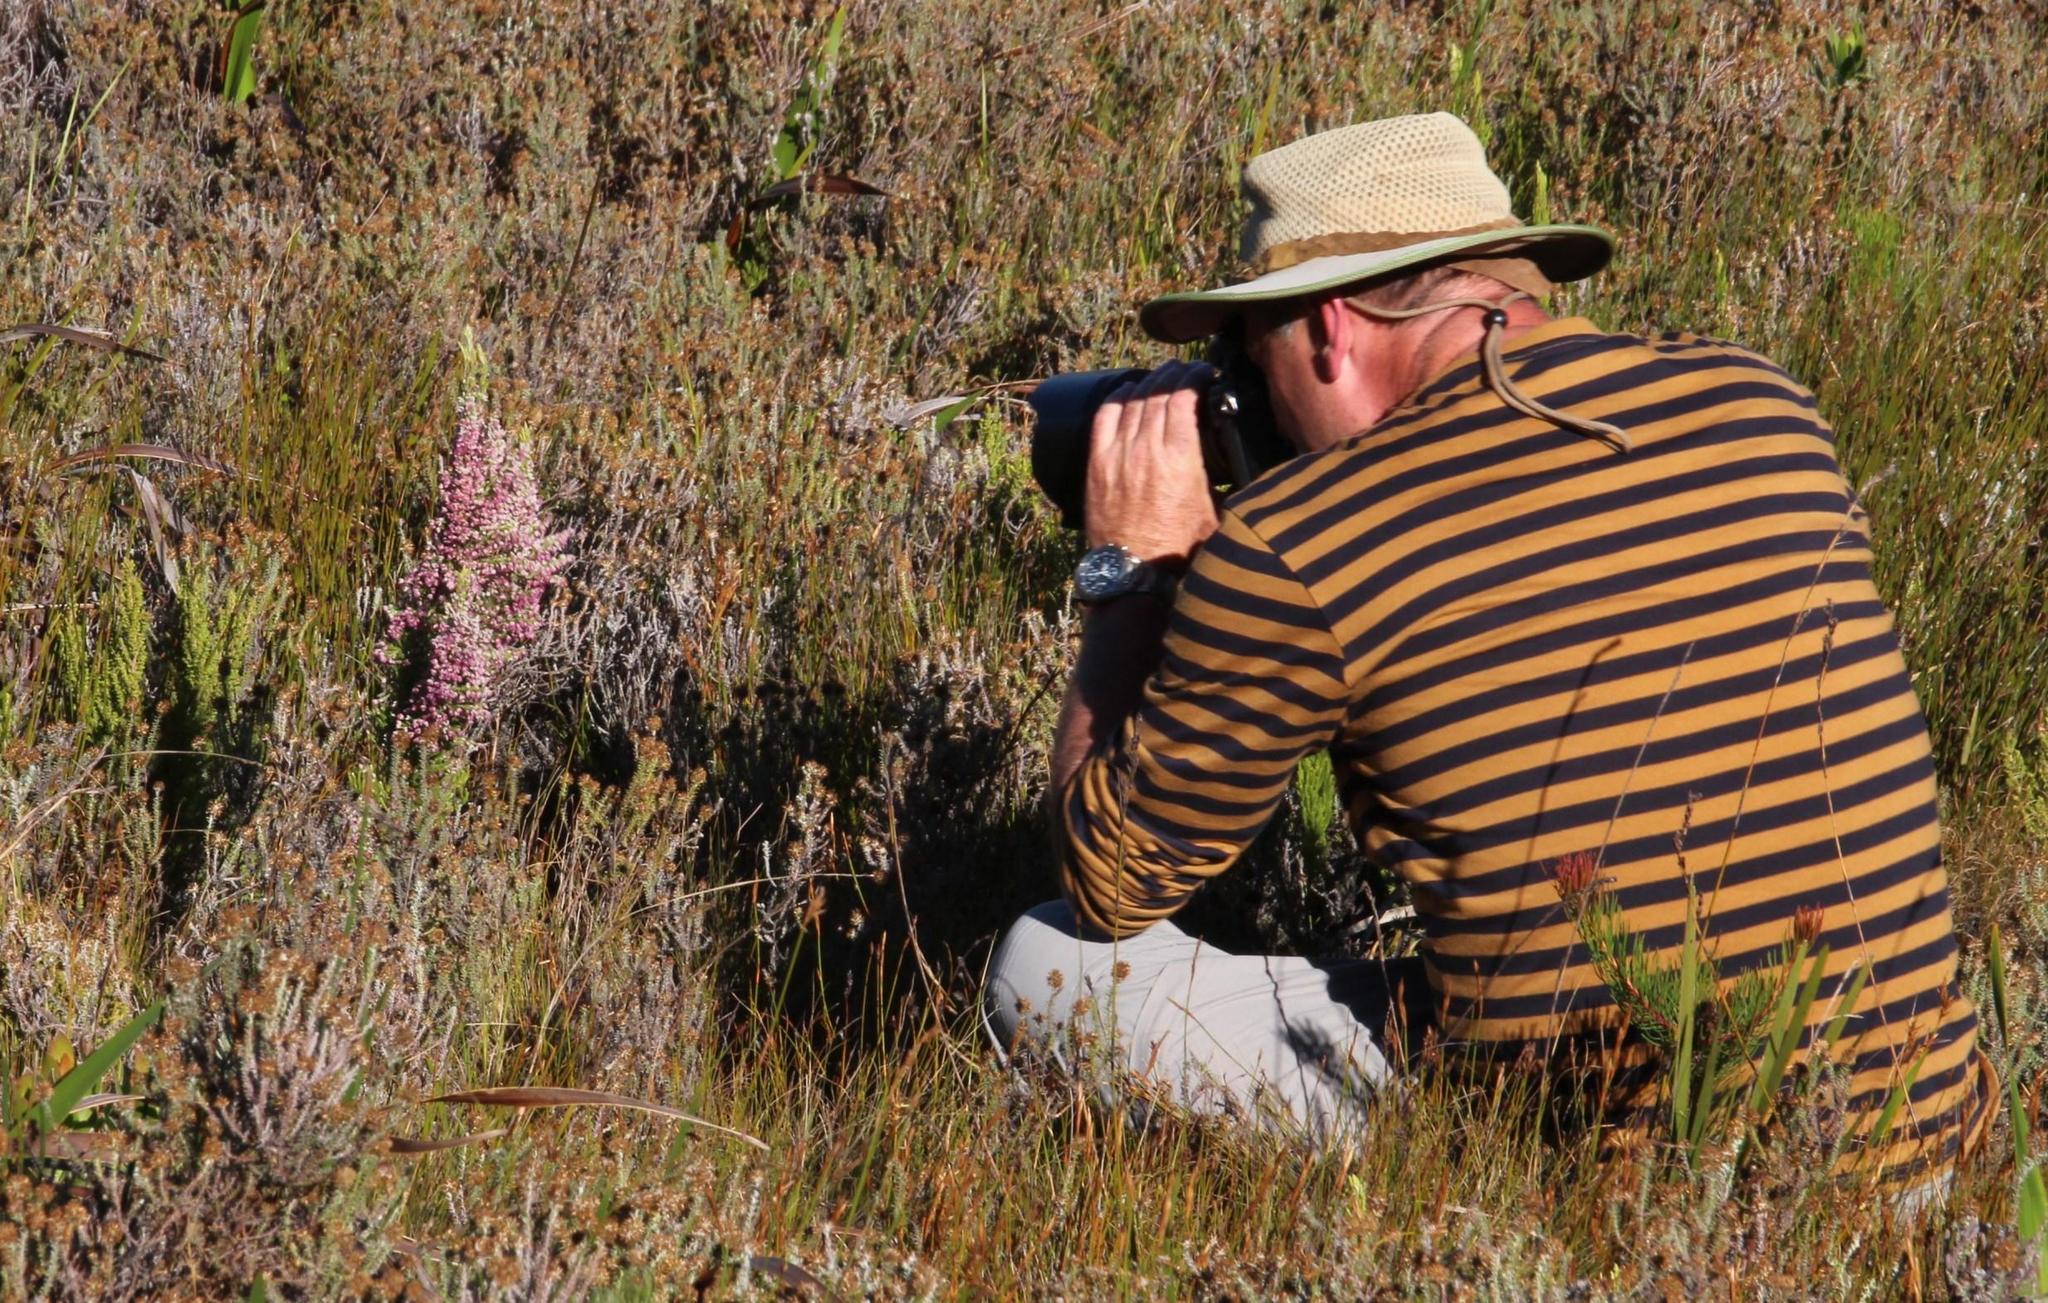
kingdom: Plantae
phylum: Tracheophyta
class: Magnoliopsida
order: Ericales
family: Ericaceae
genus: Erica
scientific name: Erica jacksoniana
